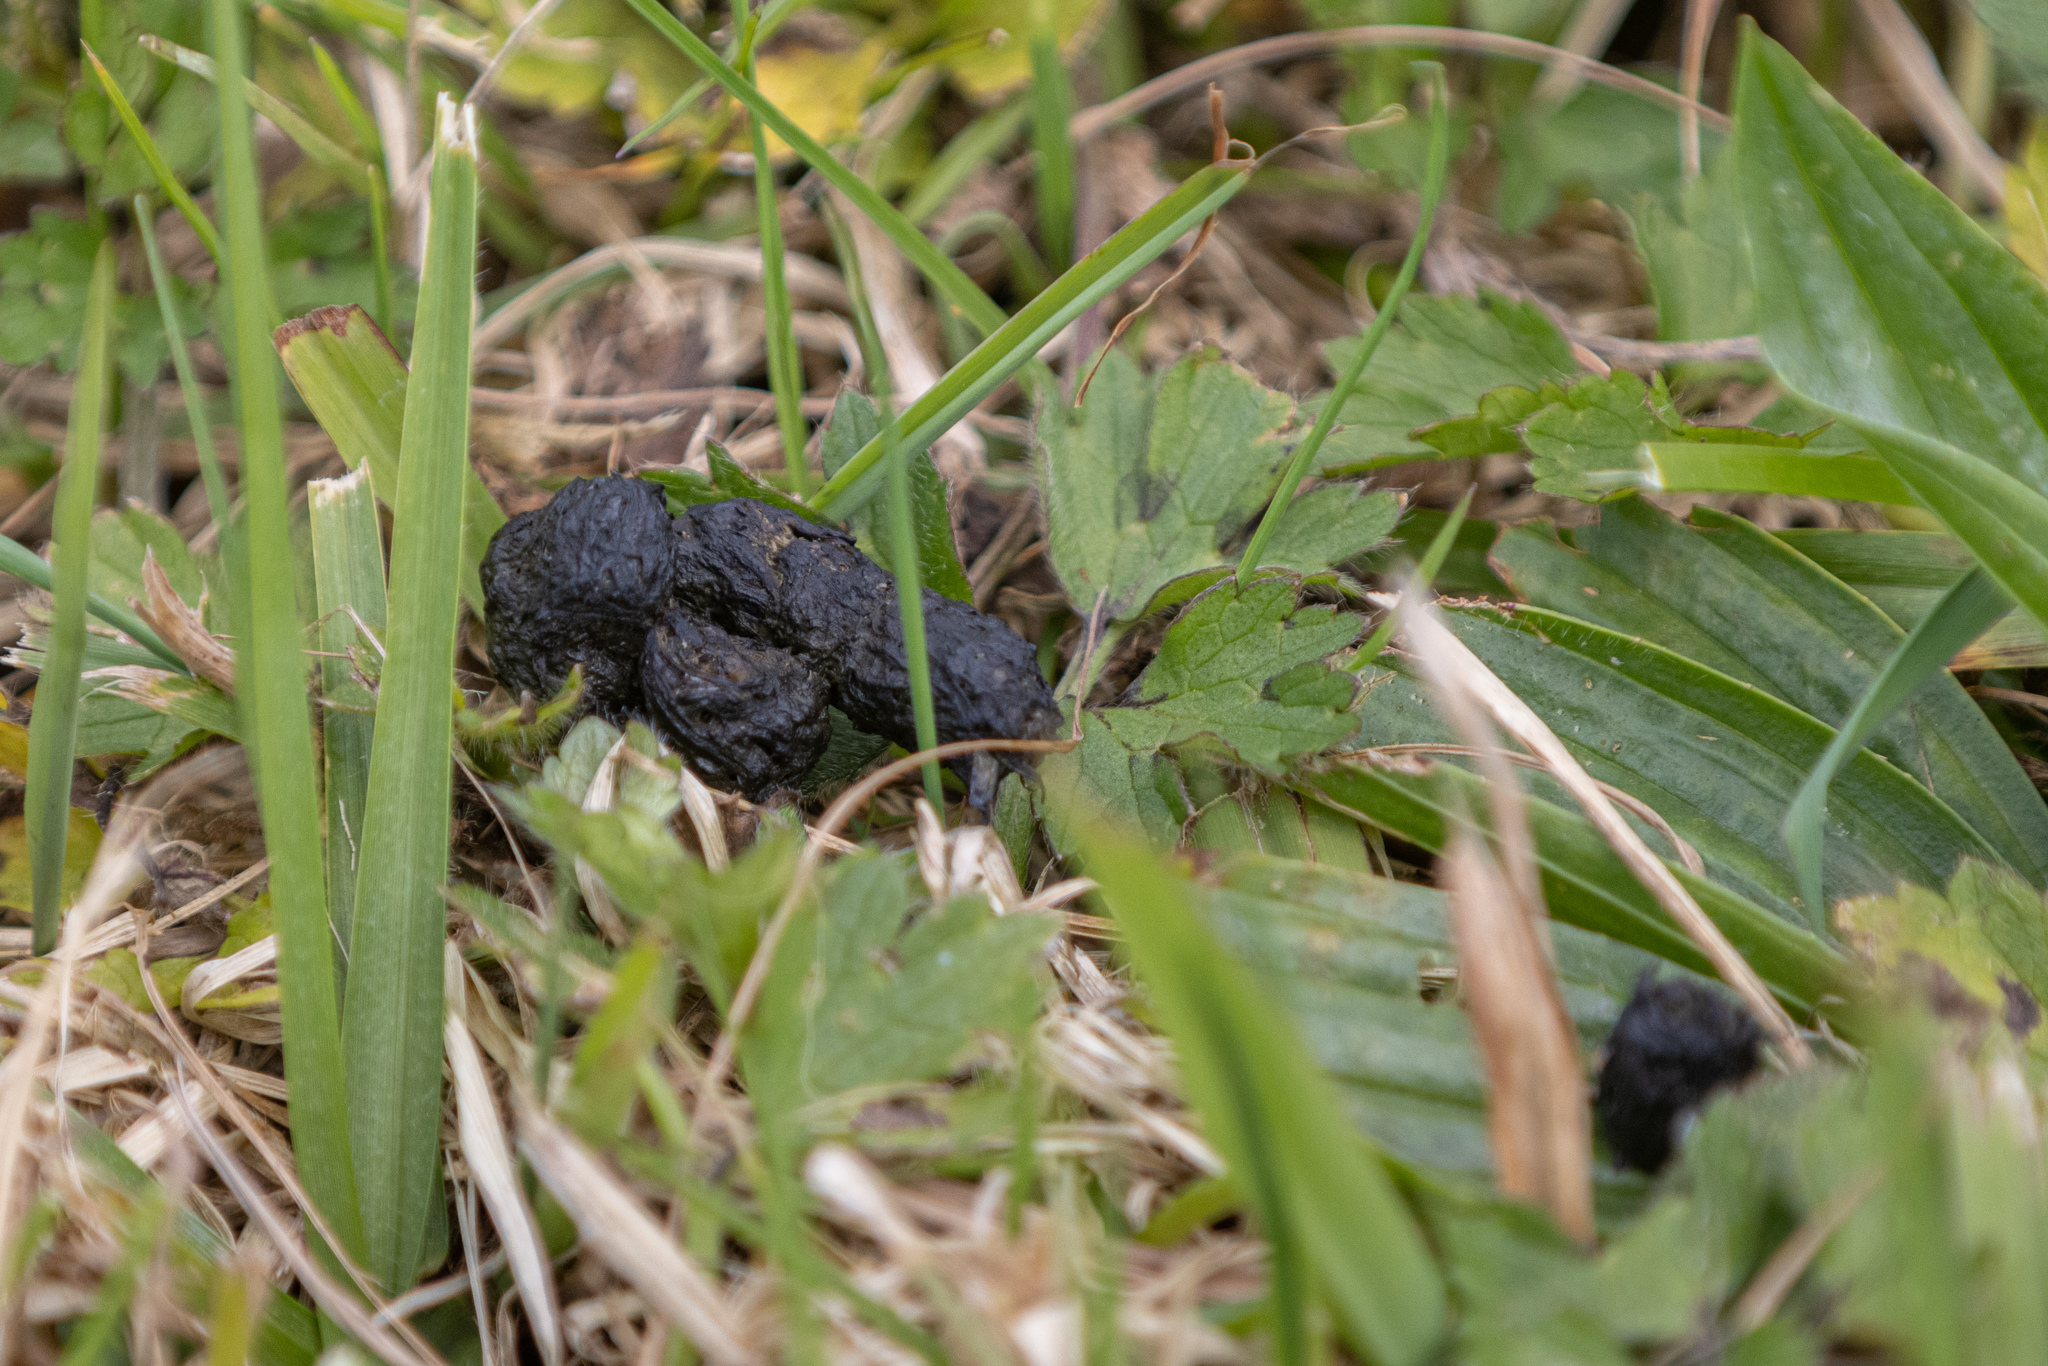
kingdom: Animalia
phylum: Chordata
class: Mammalia
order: Erinaceomorpha
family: Erinaceidae
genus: Erinaceus
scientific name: Erinaceus europaeus
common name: West european hedgehog
